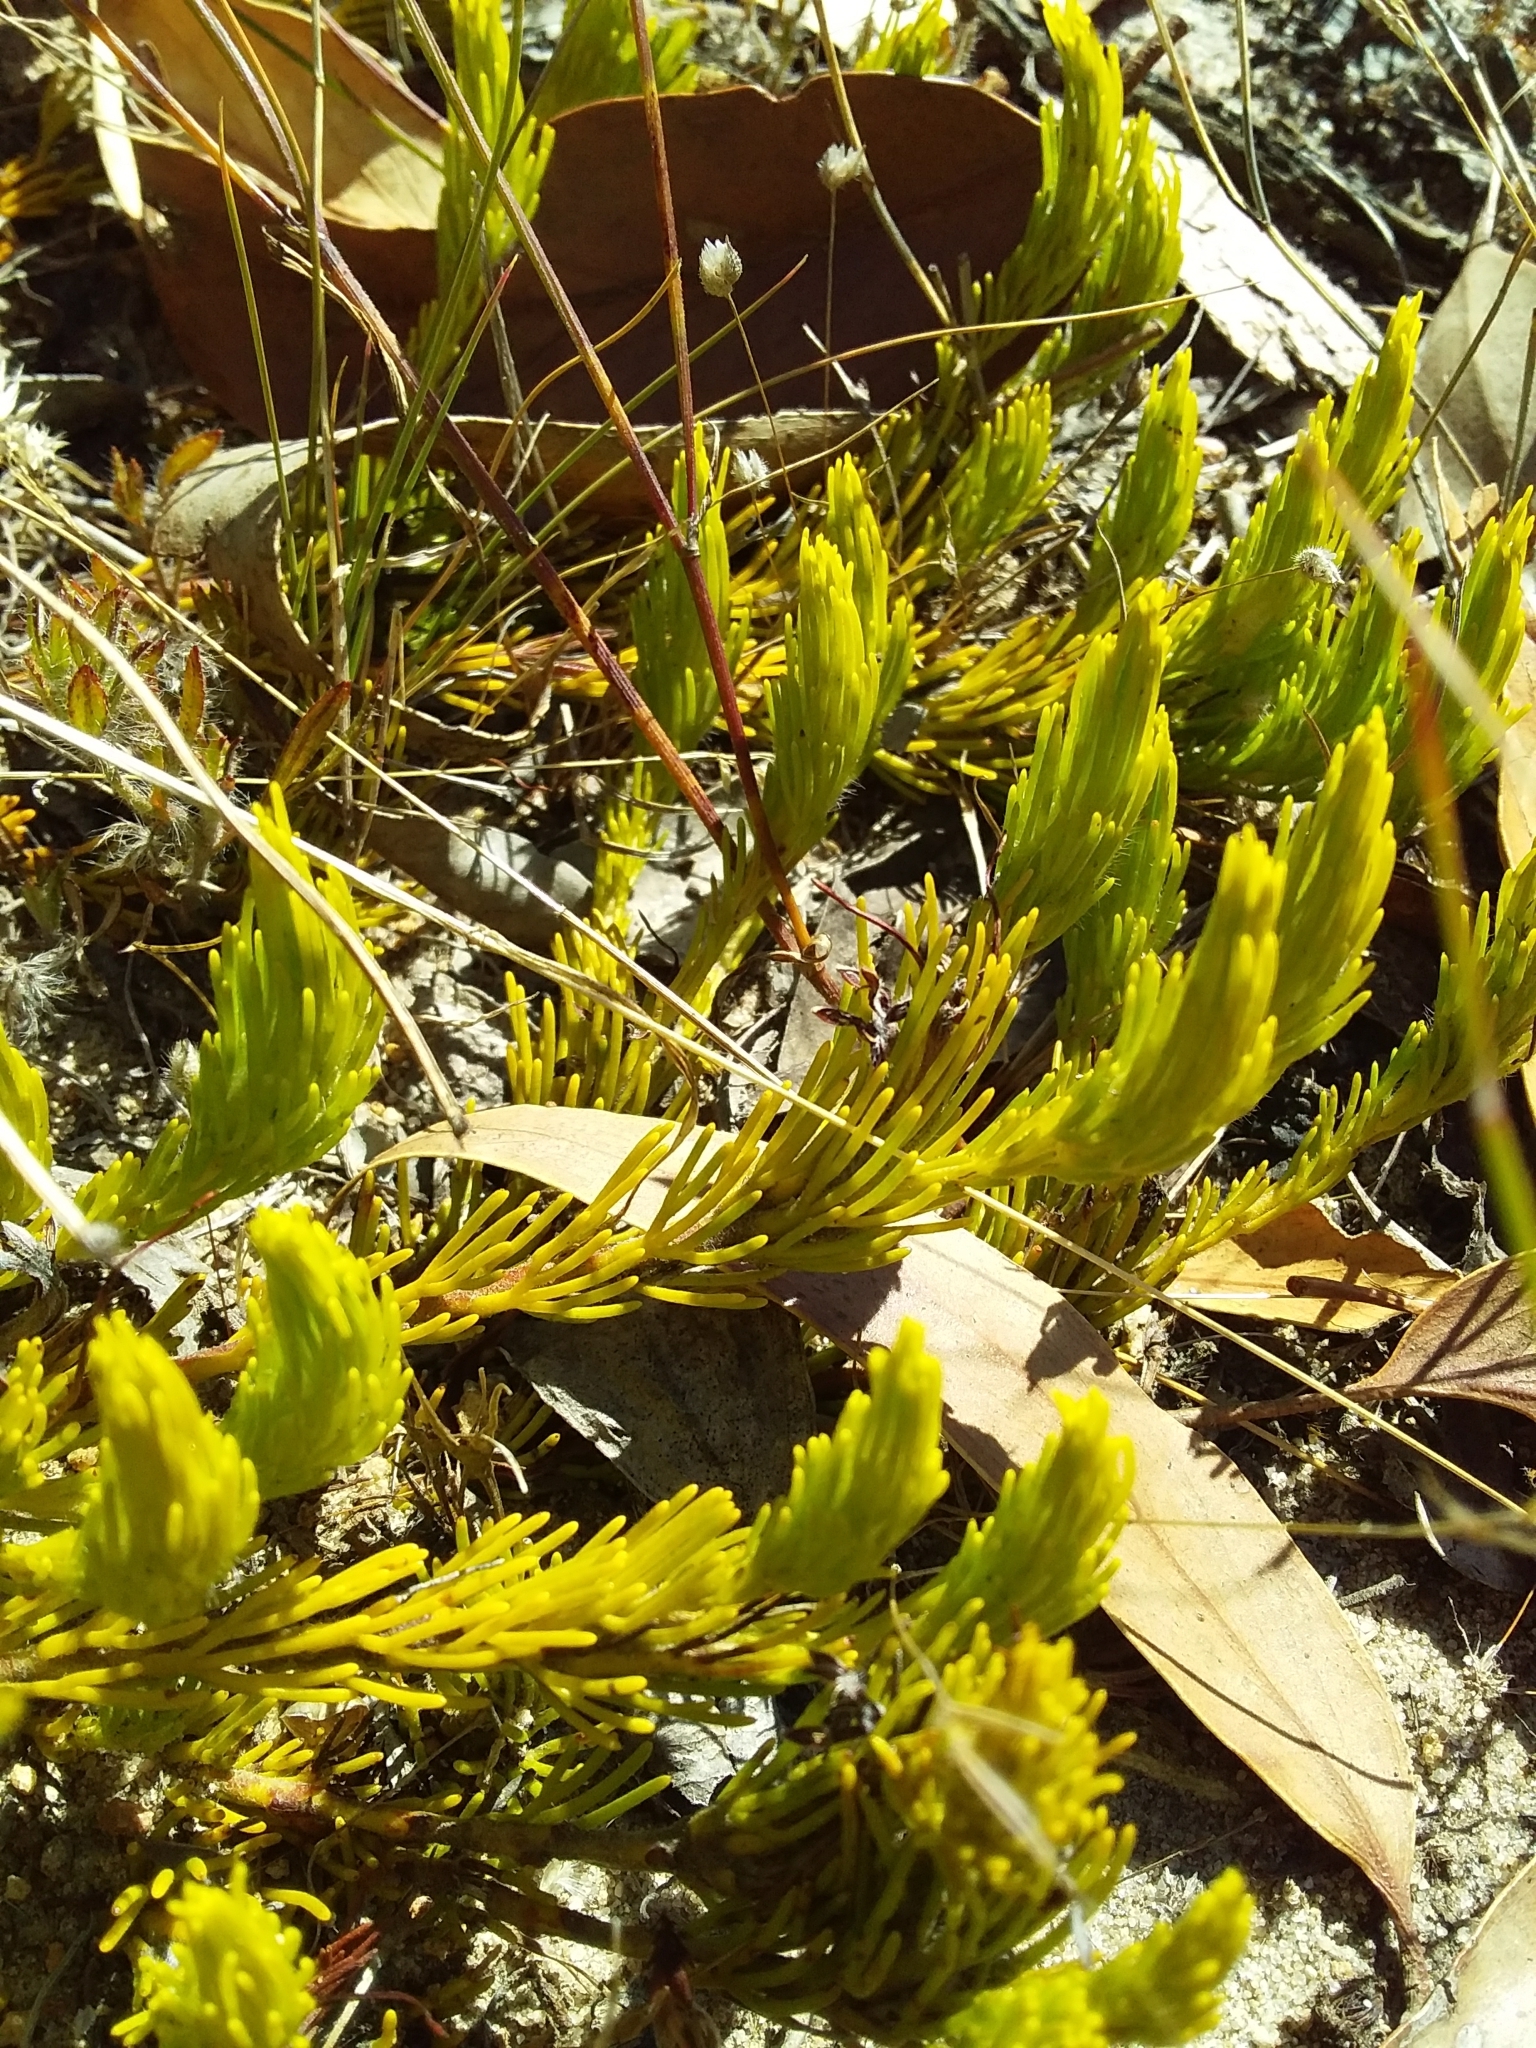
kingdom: Plantae
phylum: Tracheophyta
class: Magnoliopsida
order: Proteales
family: Proteaceae
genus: Adenanthos
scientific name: Adenanthos terminalis
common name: Yellow gland-flower
